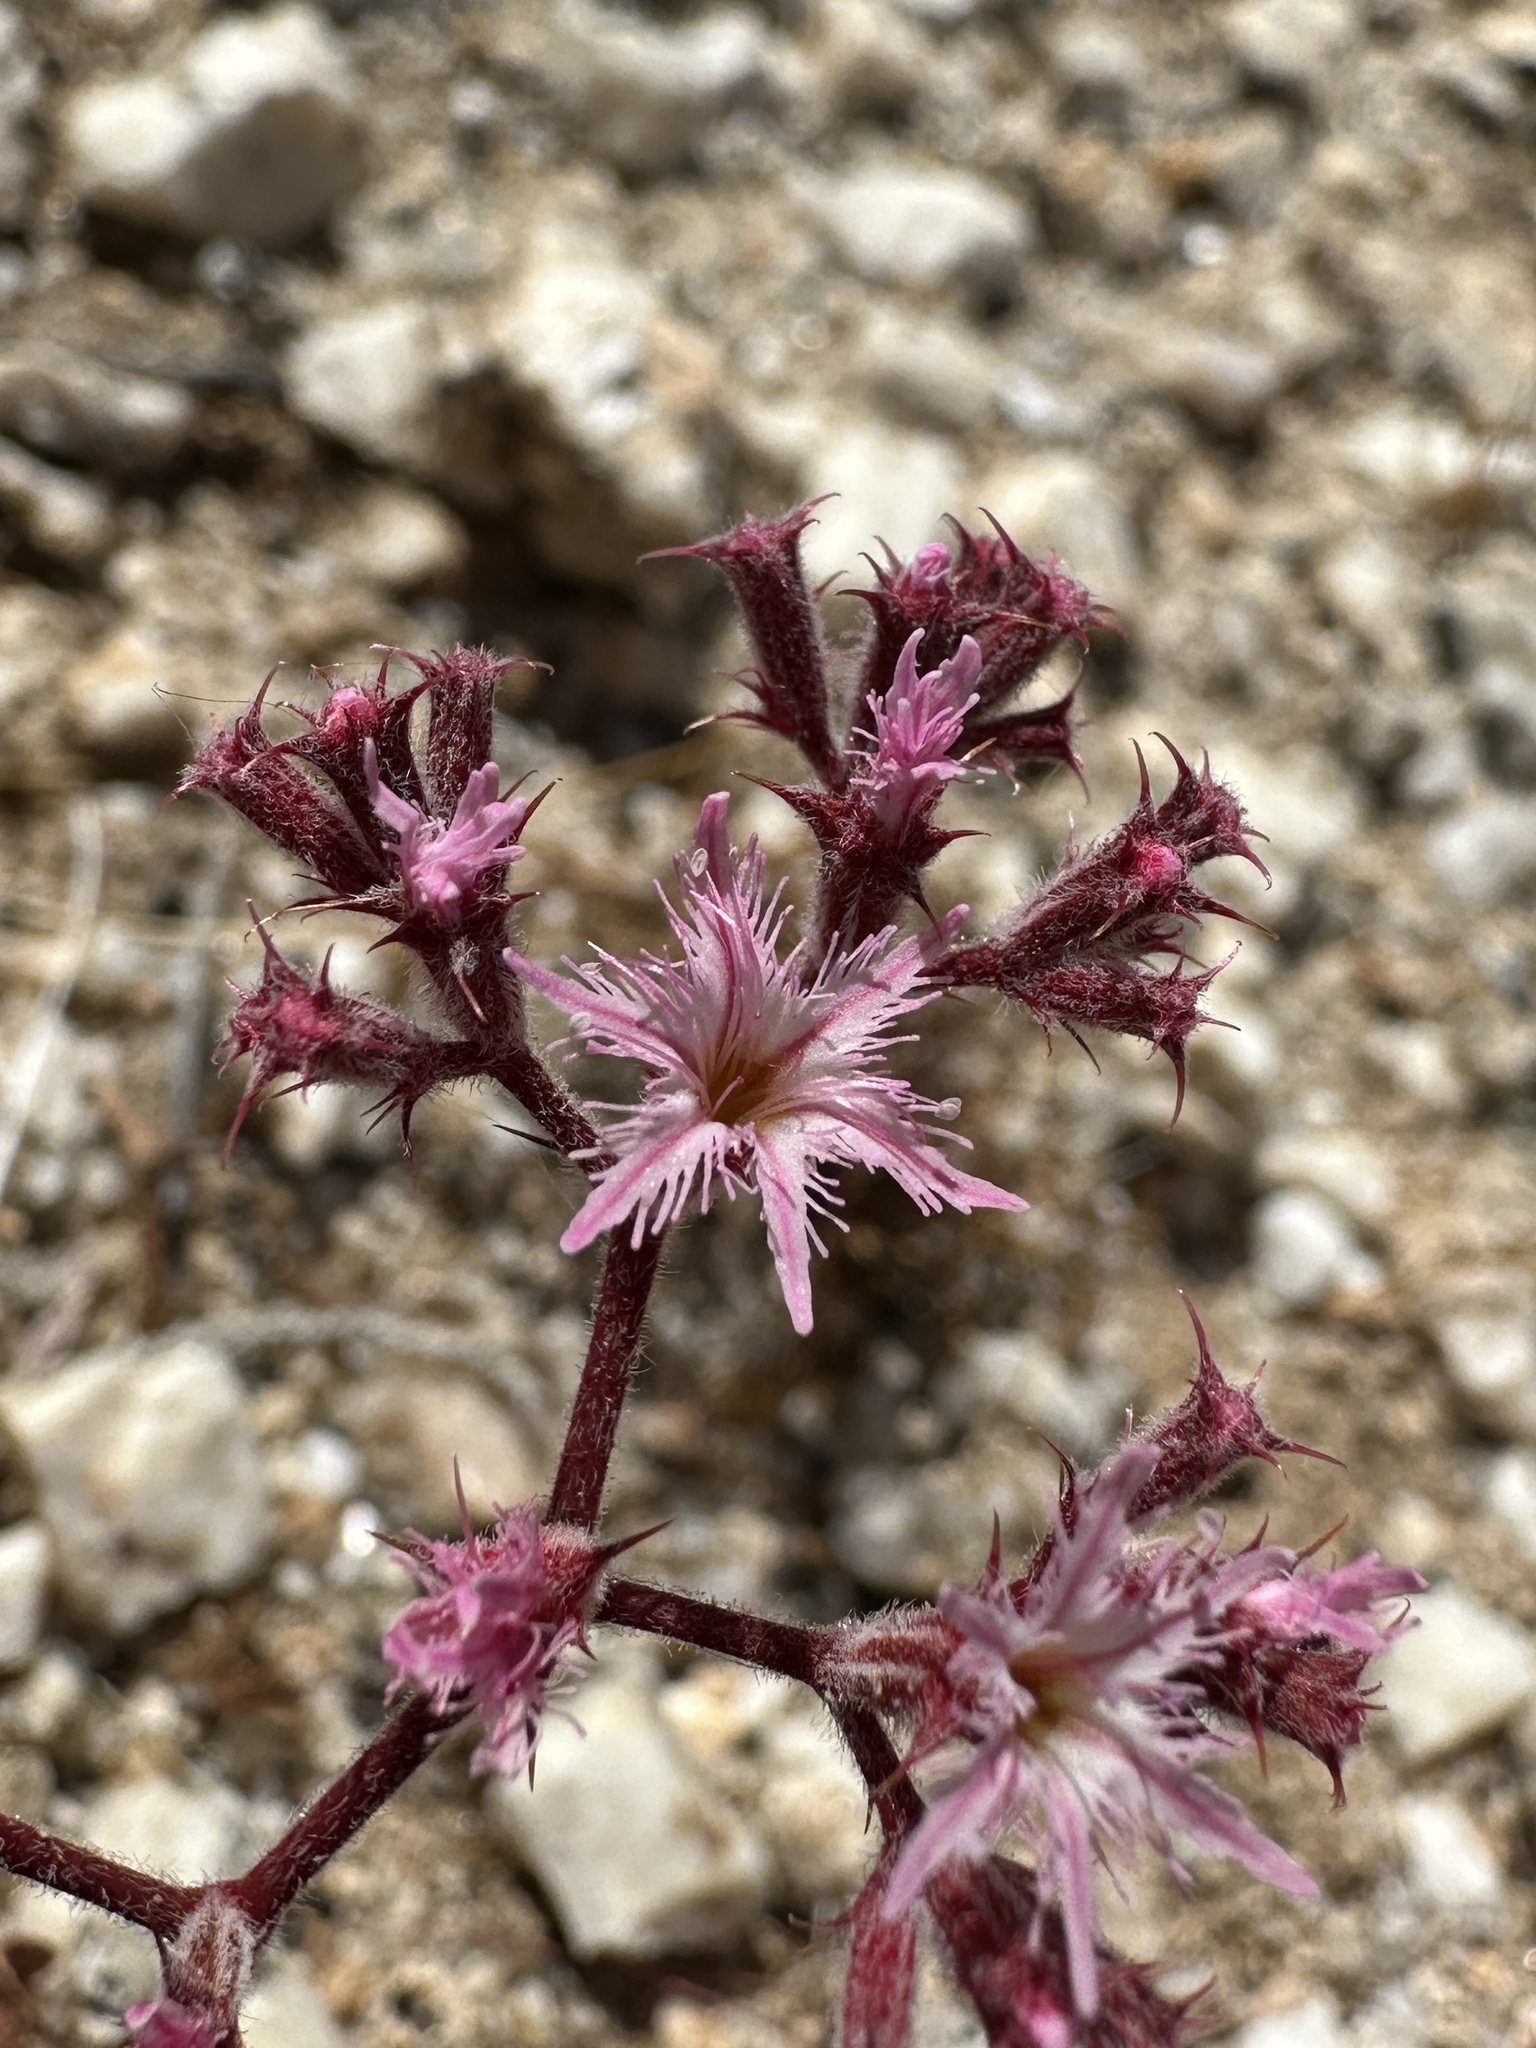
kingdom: Plantae
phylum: Tracheophyta
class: Magnoliopsida
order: Caryophyllales
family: Polygonaceae
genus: Chorizanthe
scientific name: Chorizanthe fimbriata
